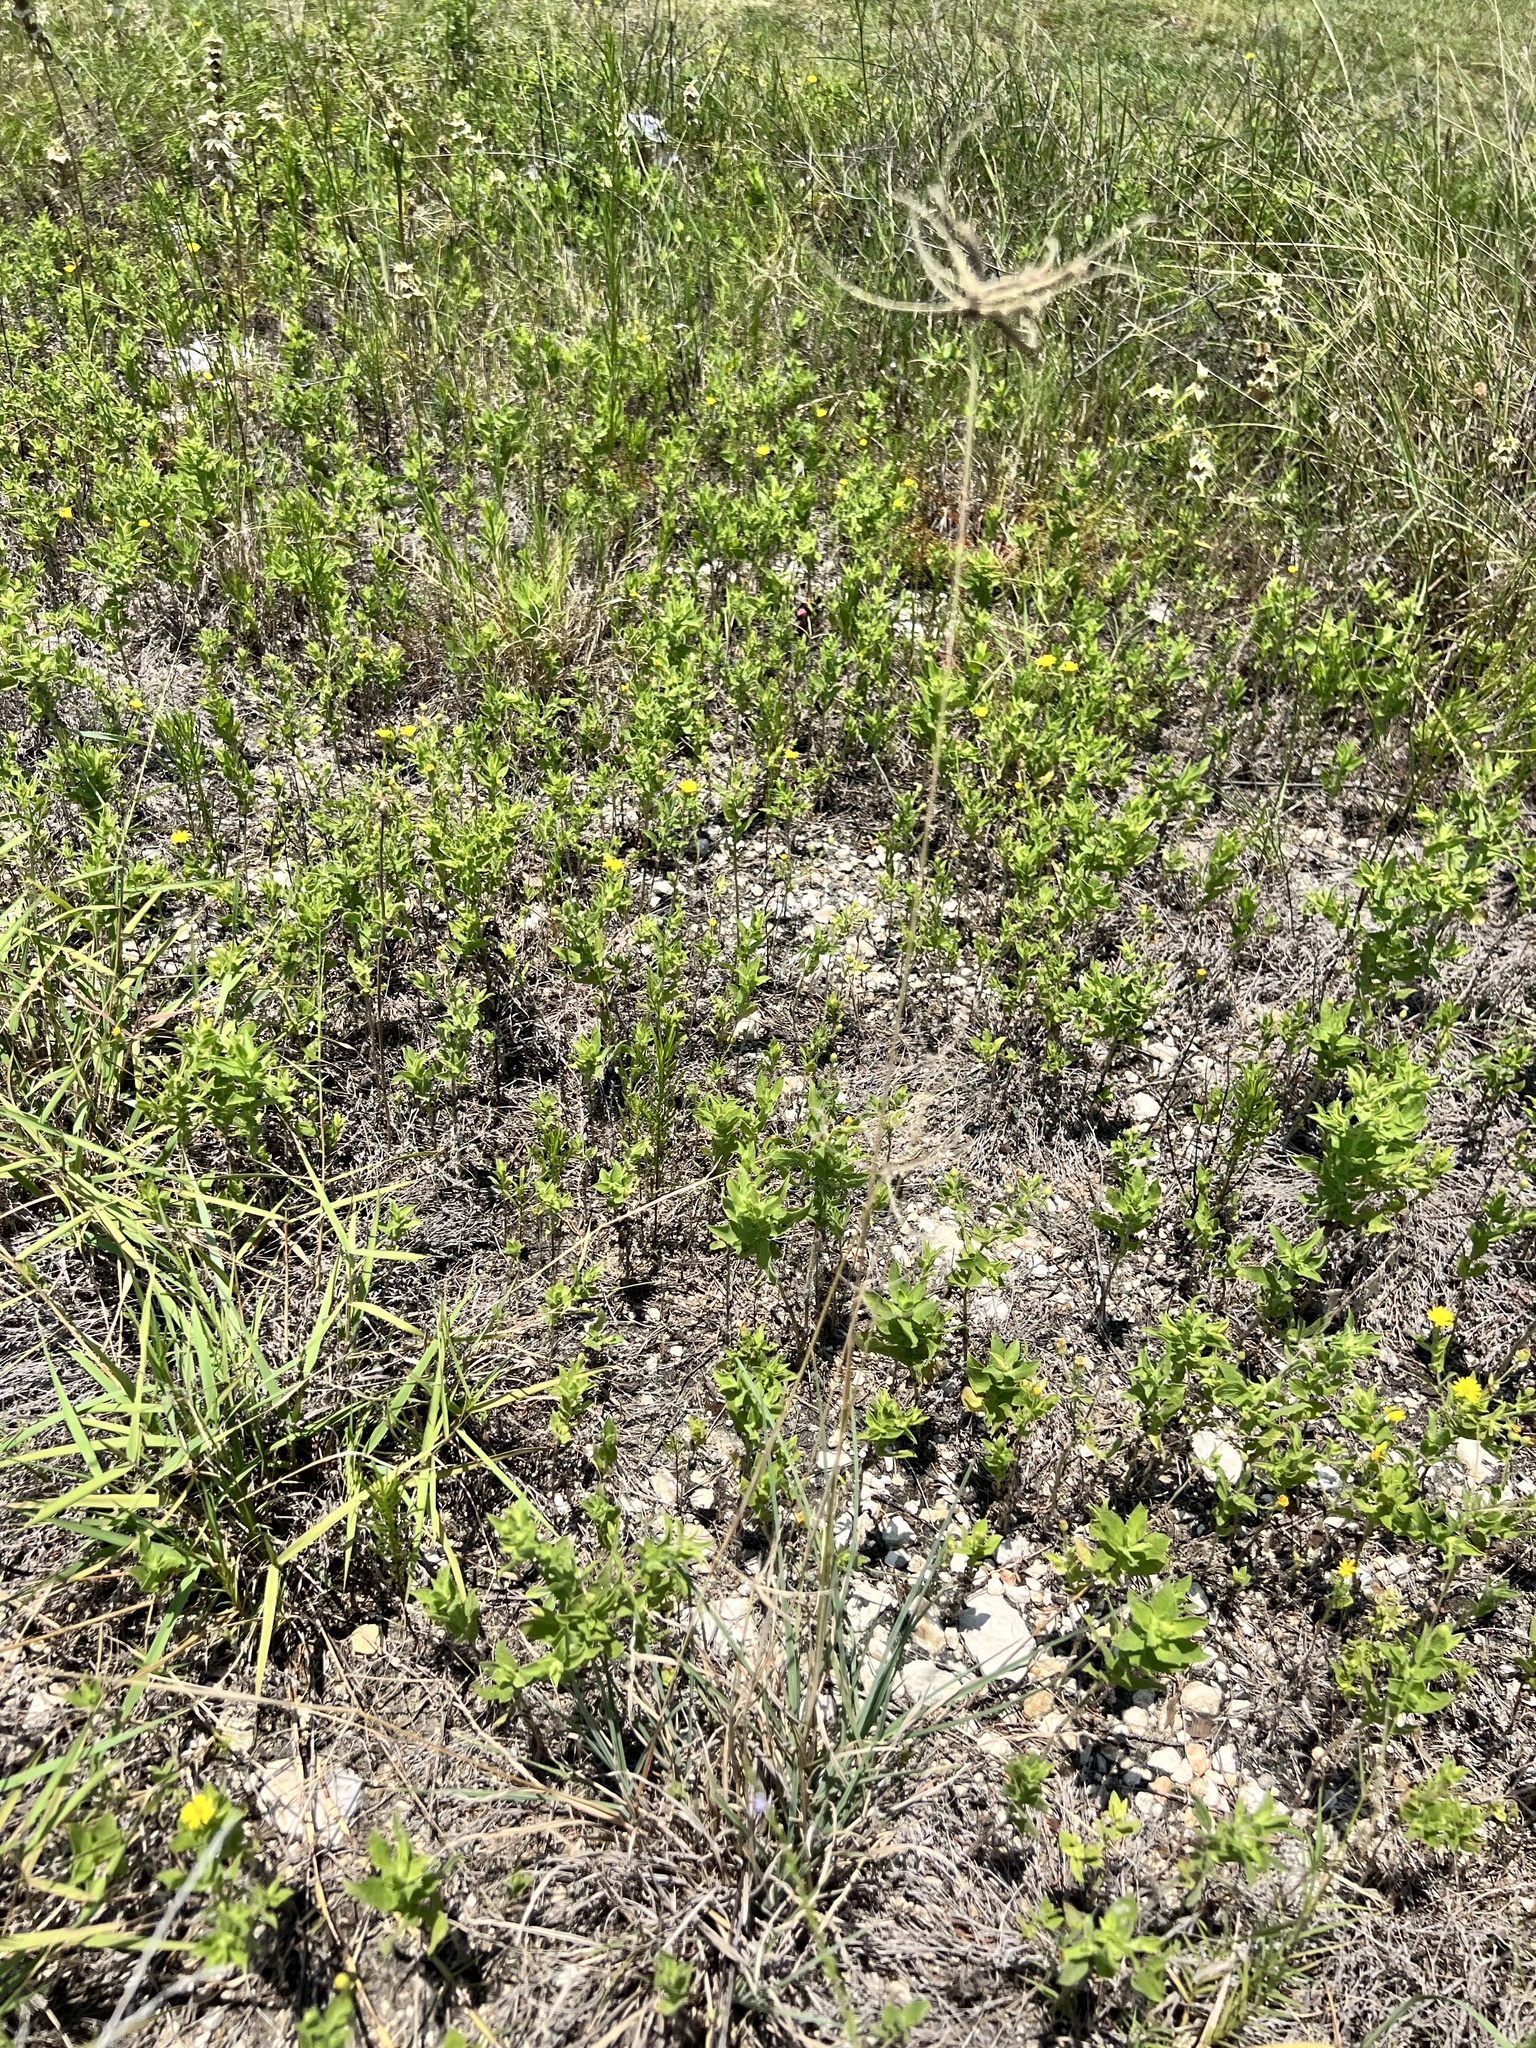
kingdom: Plantae
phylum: Tracheophyta
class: Liliopsida
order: Poales
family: Poaceae
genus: Chloris
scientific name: Chloris cucullata
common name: Hooded windmill grass
